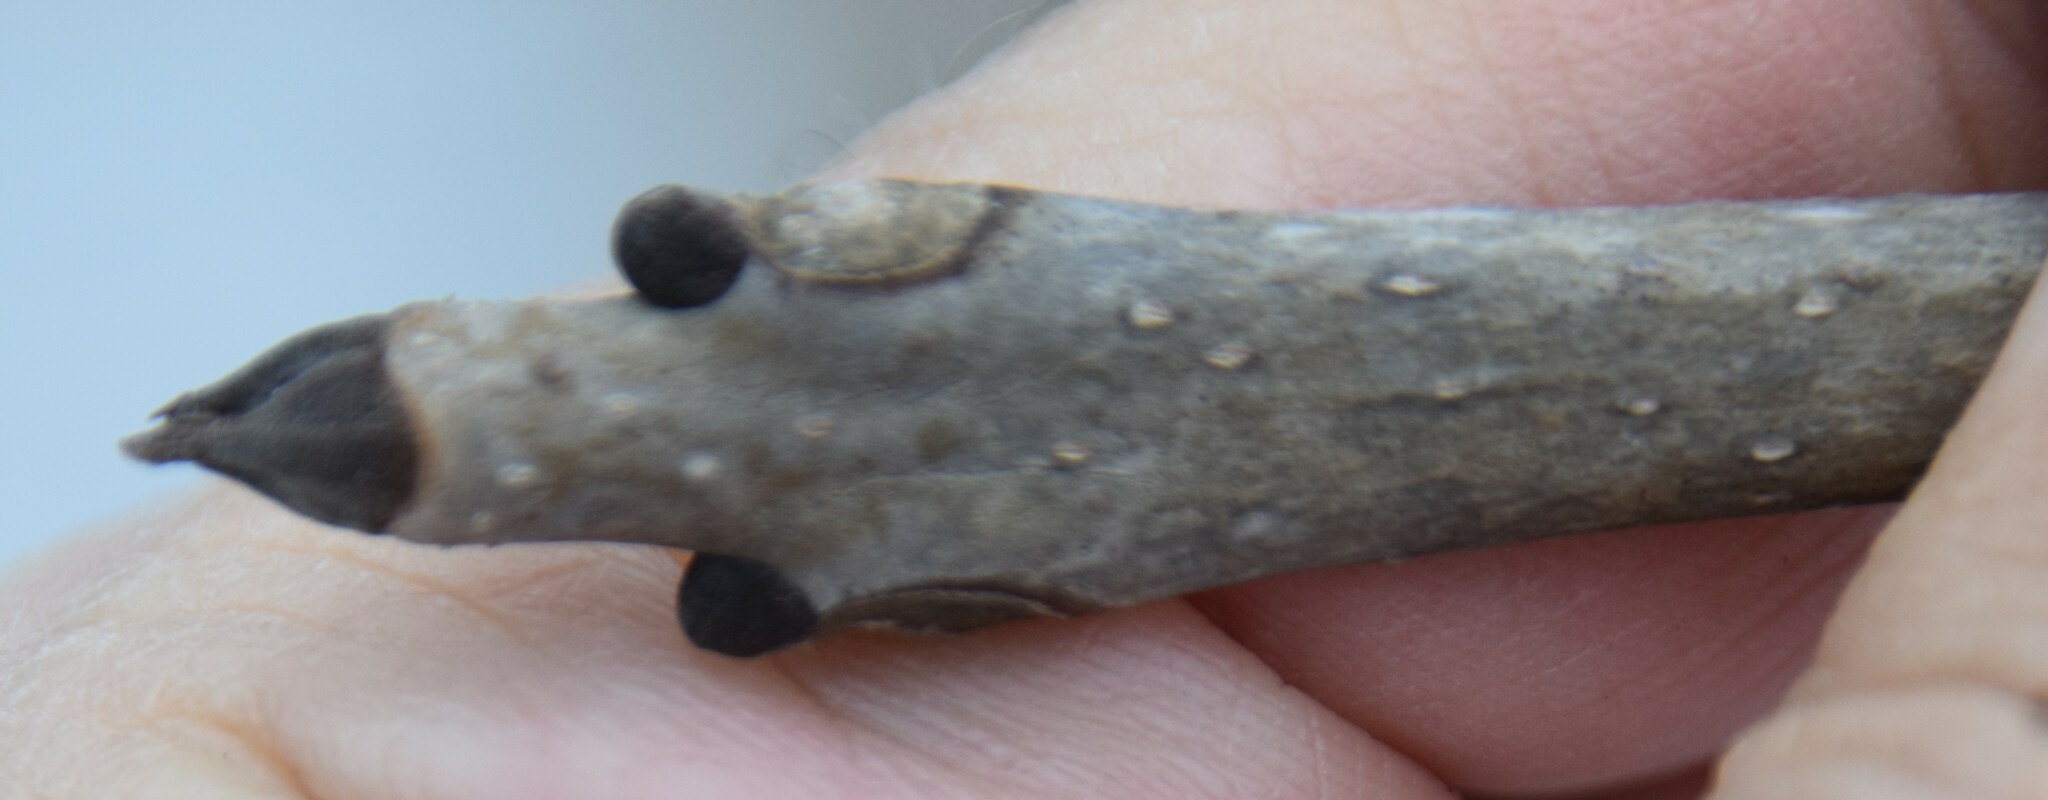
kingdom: Plantae
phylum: Tracheophyta
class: Magnoliopsida
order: Lamiales
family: Oleaceae
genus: Fraxinus
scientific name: Fraxinus nigra
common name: Black ash
